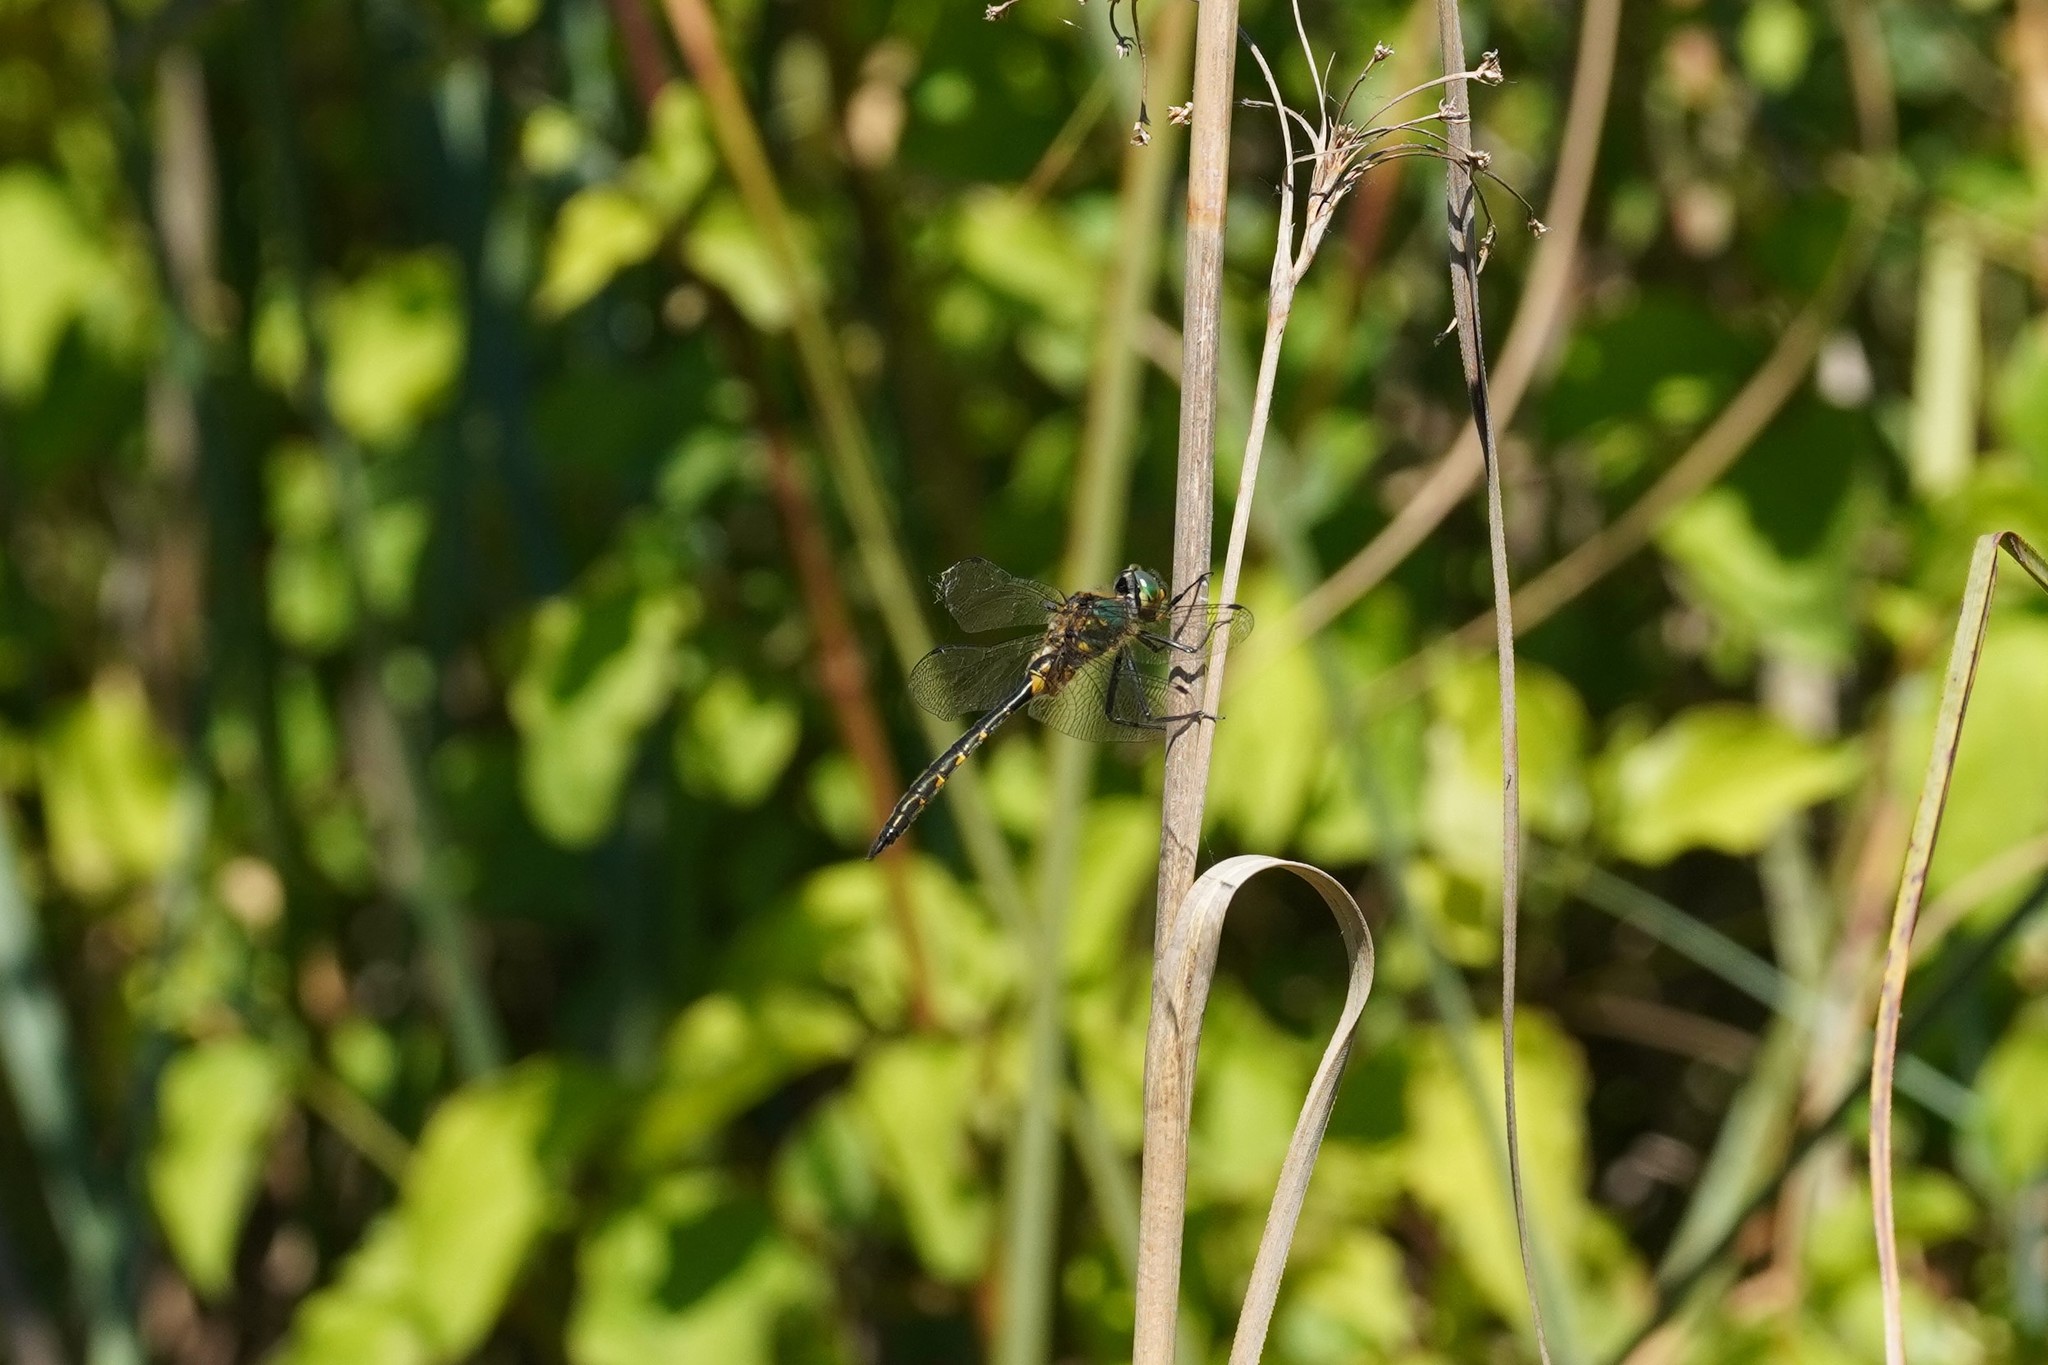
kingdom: Animalia
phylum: Arthropoda
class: Insecta
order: Odonata
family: Corduliidae
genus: Somatochlora
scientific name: Somatochlora flavomaculata
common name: Yellow-spotted emerald
